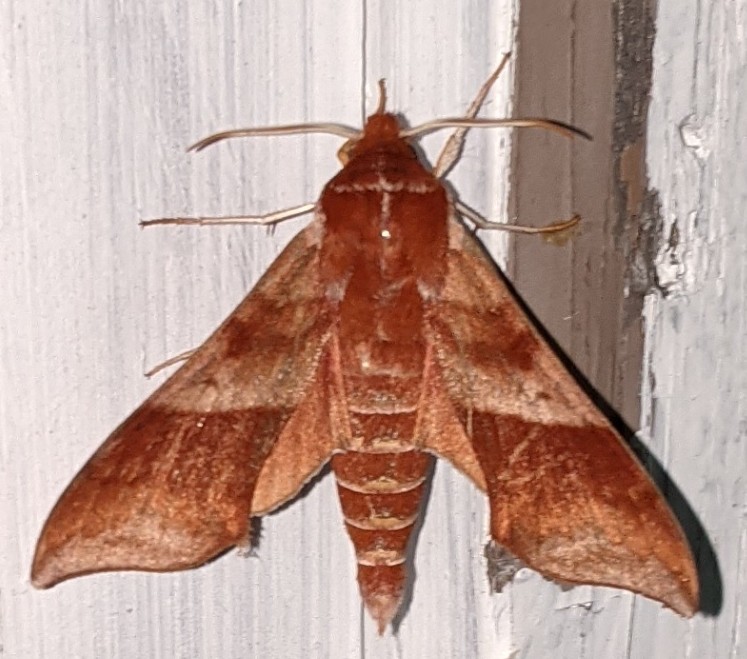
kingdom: Animalia
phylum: Arthropoda
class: Insecta
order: Lepidoptera
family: Sphingidae
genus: Darapsa
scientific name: Darapsa choerilus
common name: Azalea sphinx
